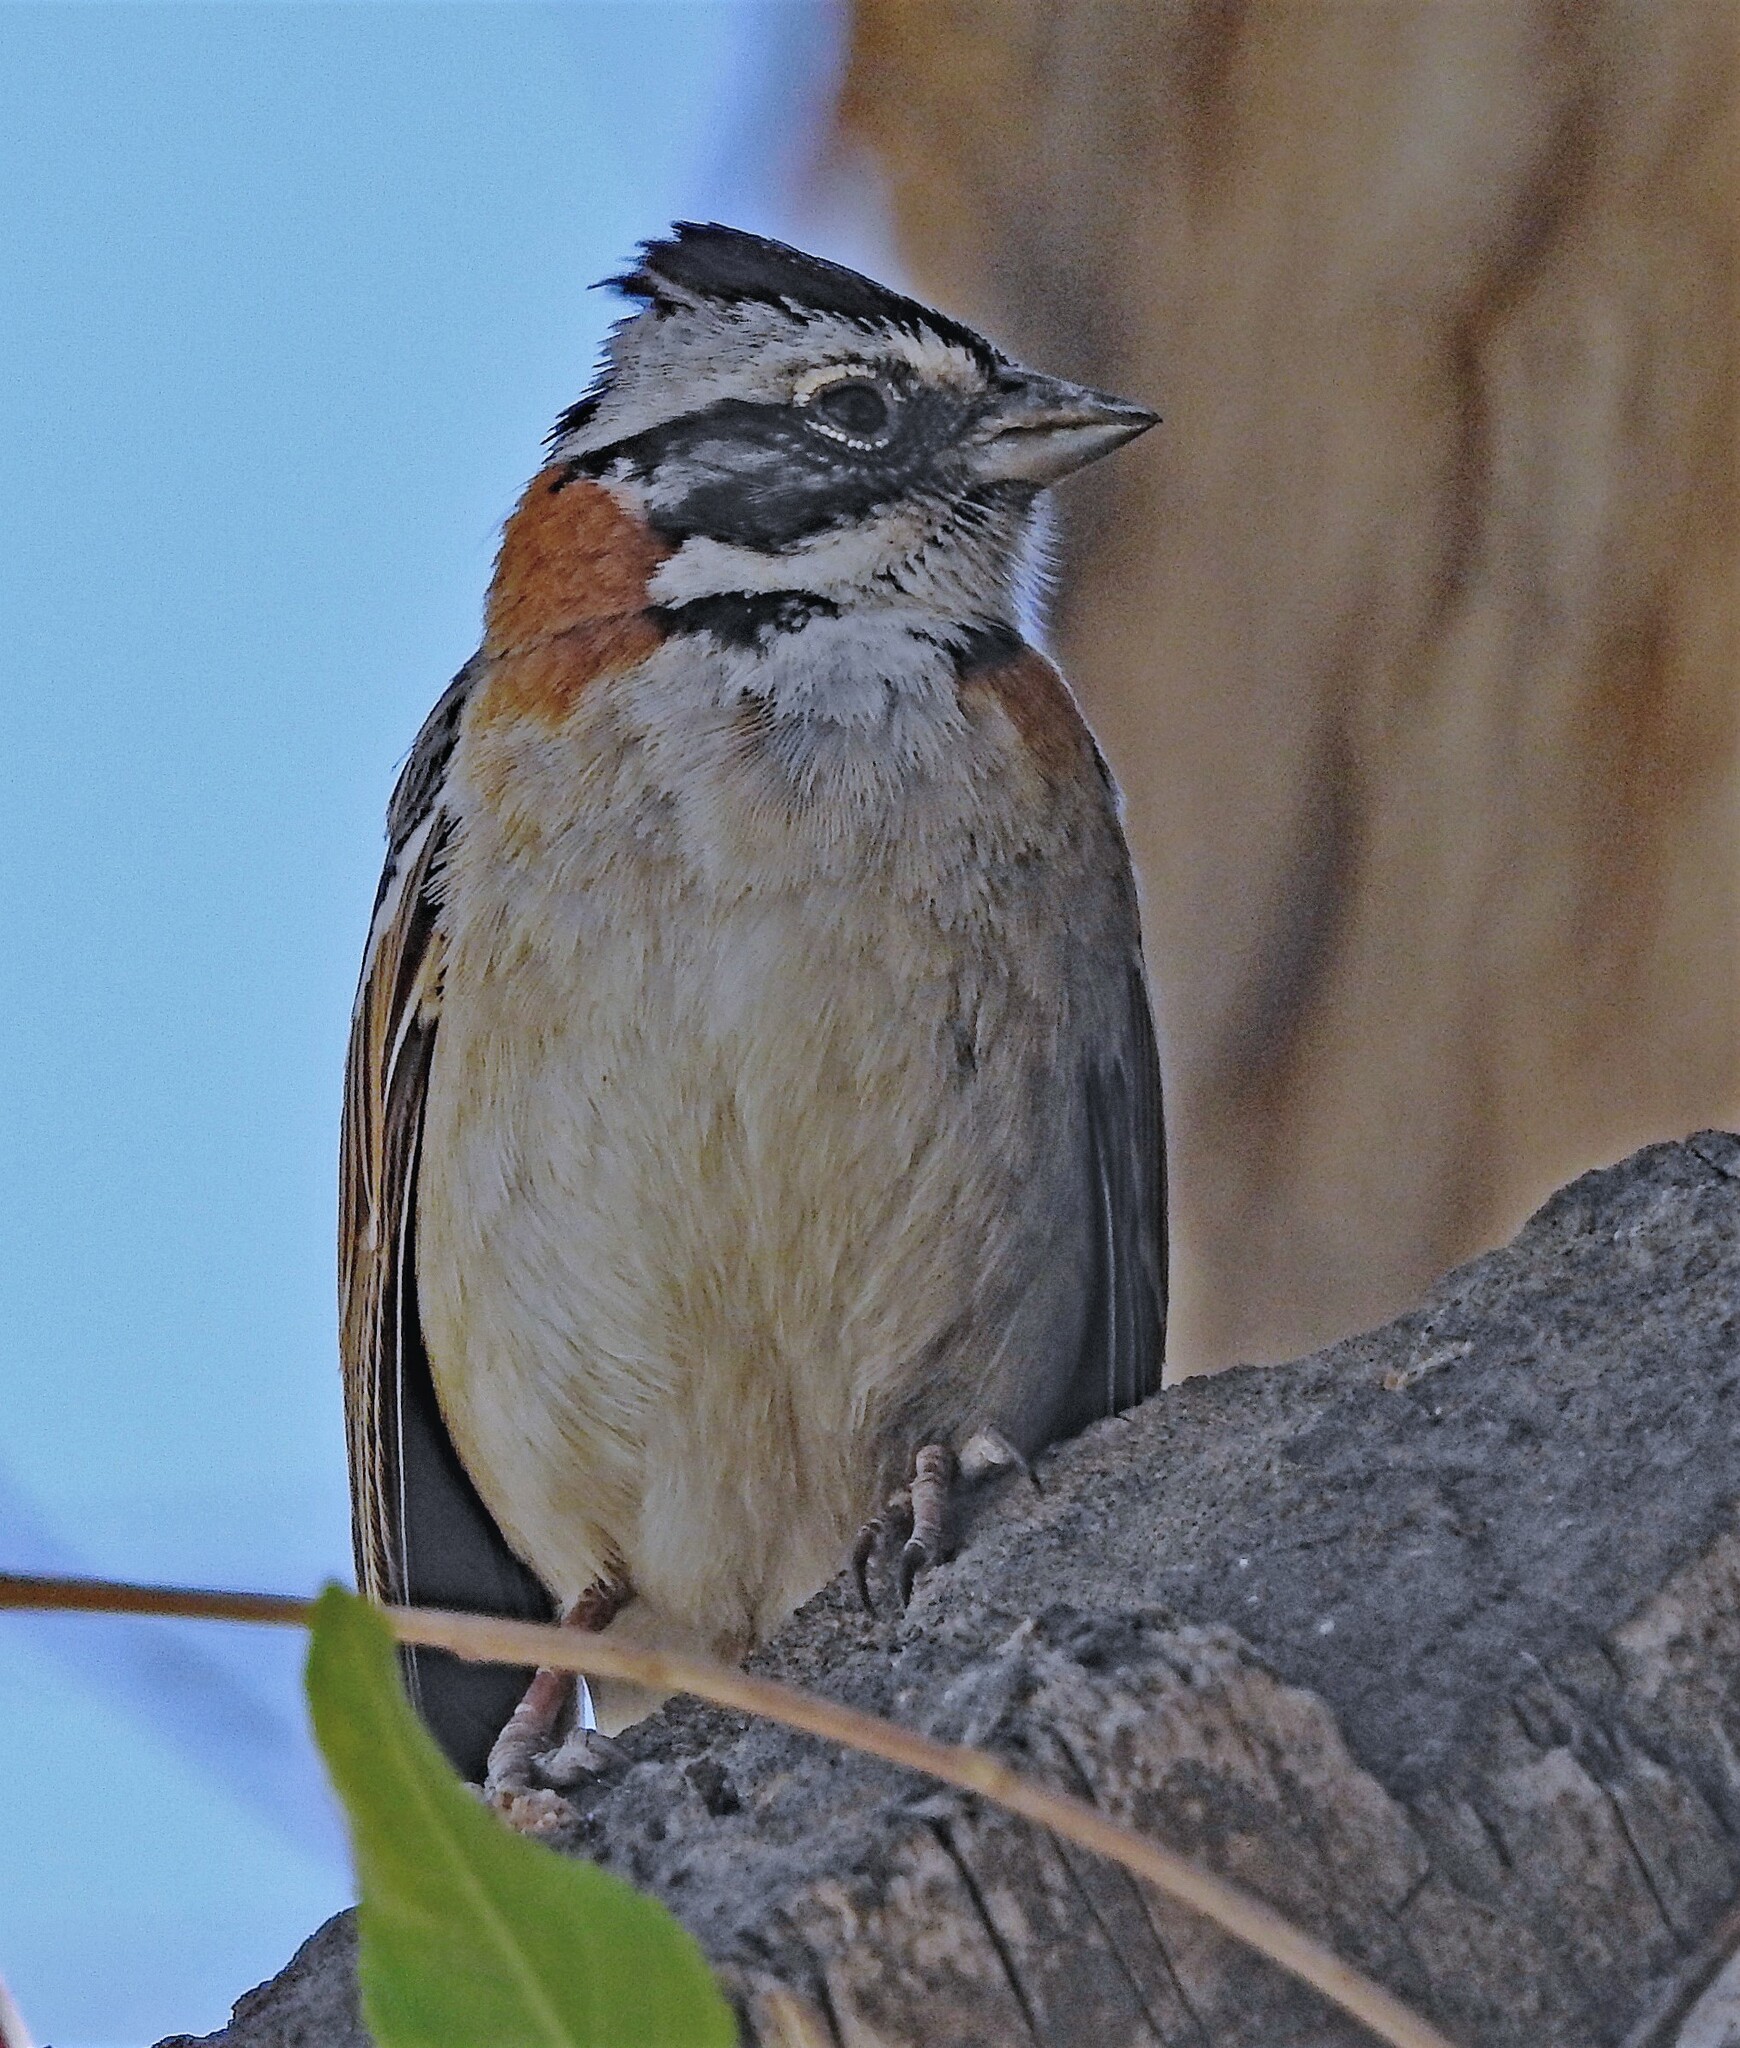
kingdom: Animalia
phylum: Chordata
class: Aves
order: Passeriformes
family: Passerellidae
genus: Zonotrichia
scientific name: Zonotrichia capensis
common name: Rufous-collared sparrow
